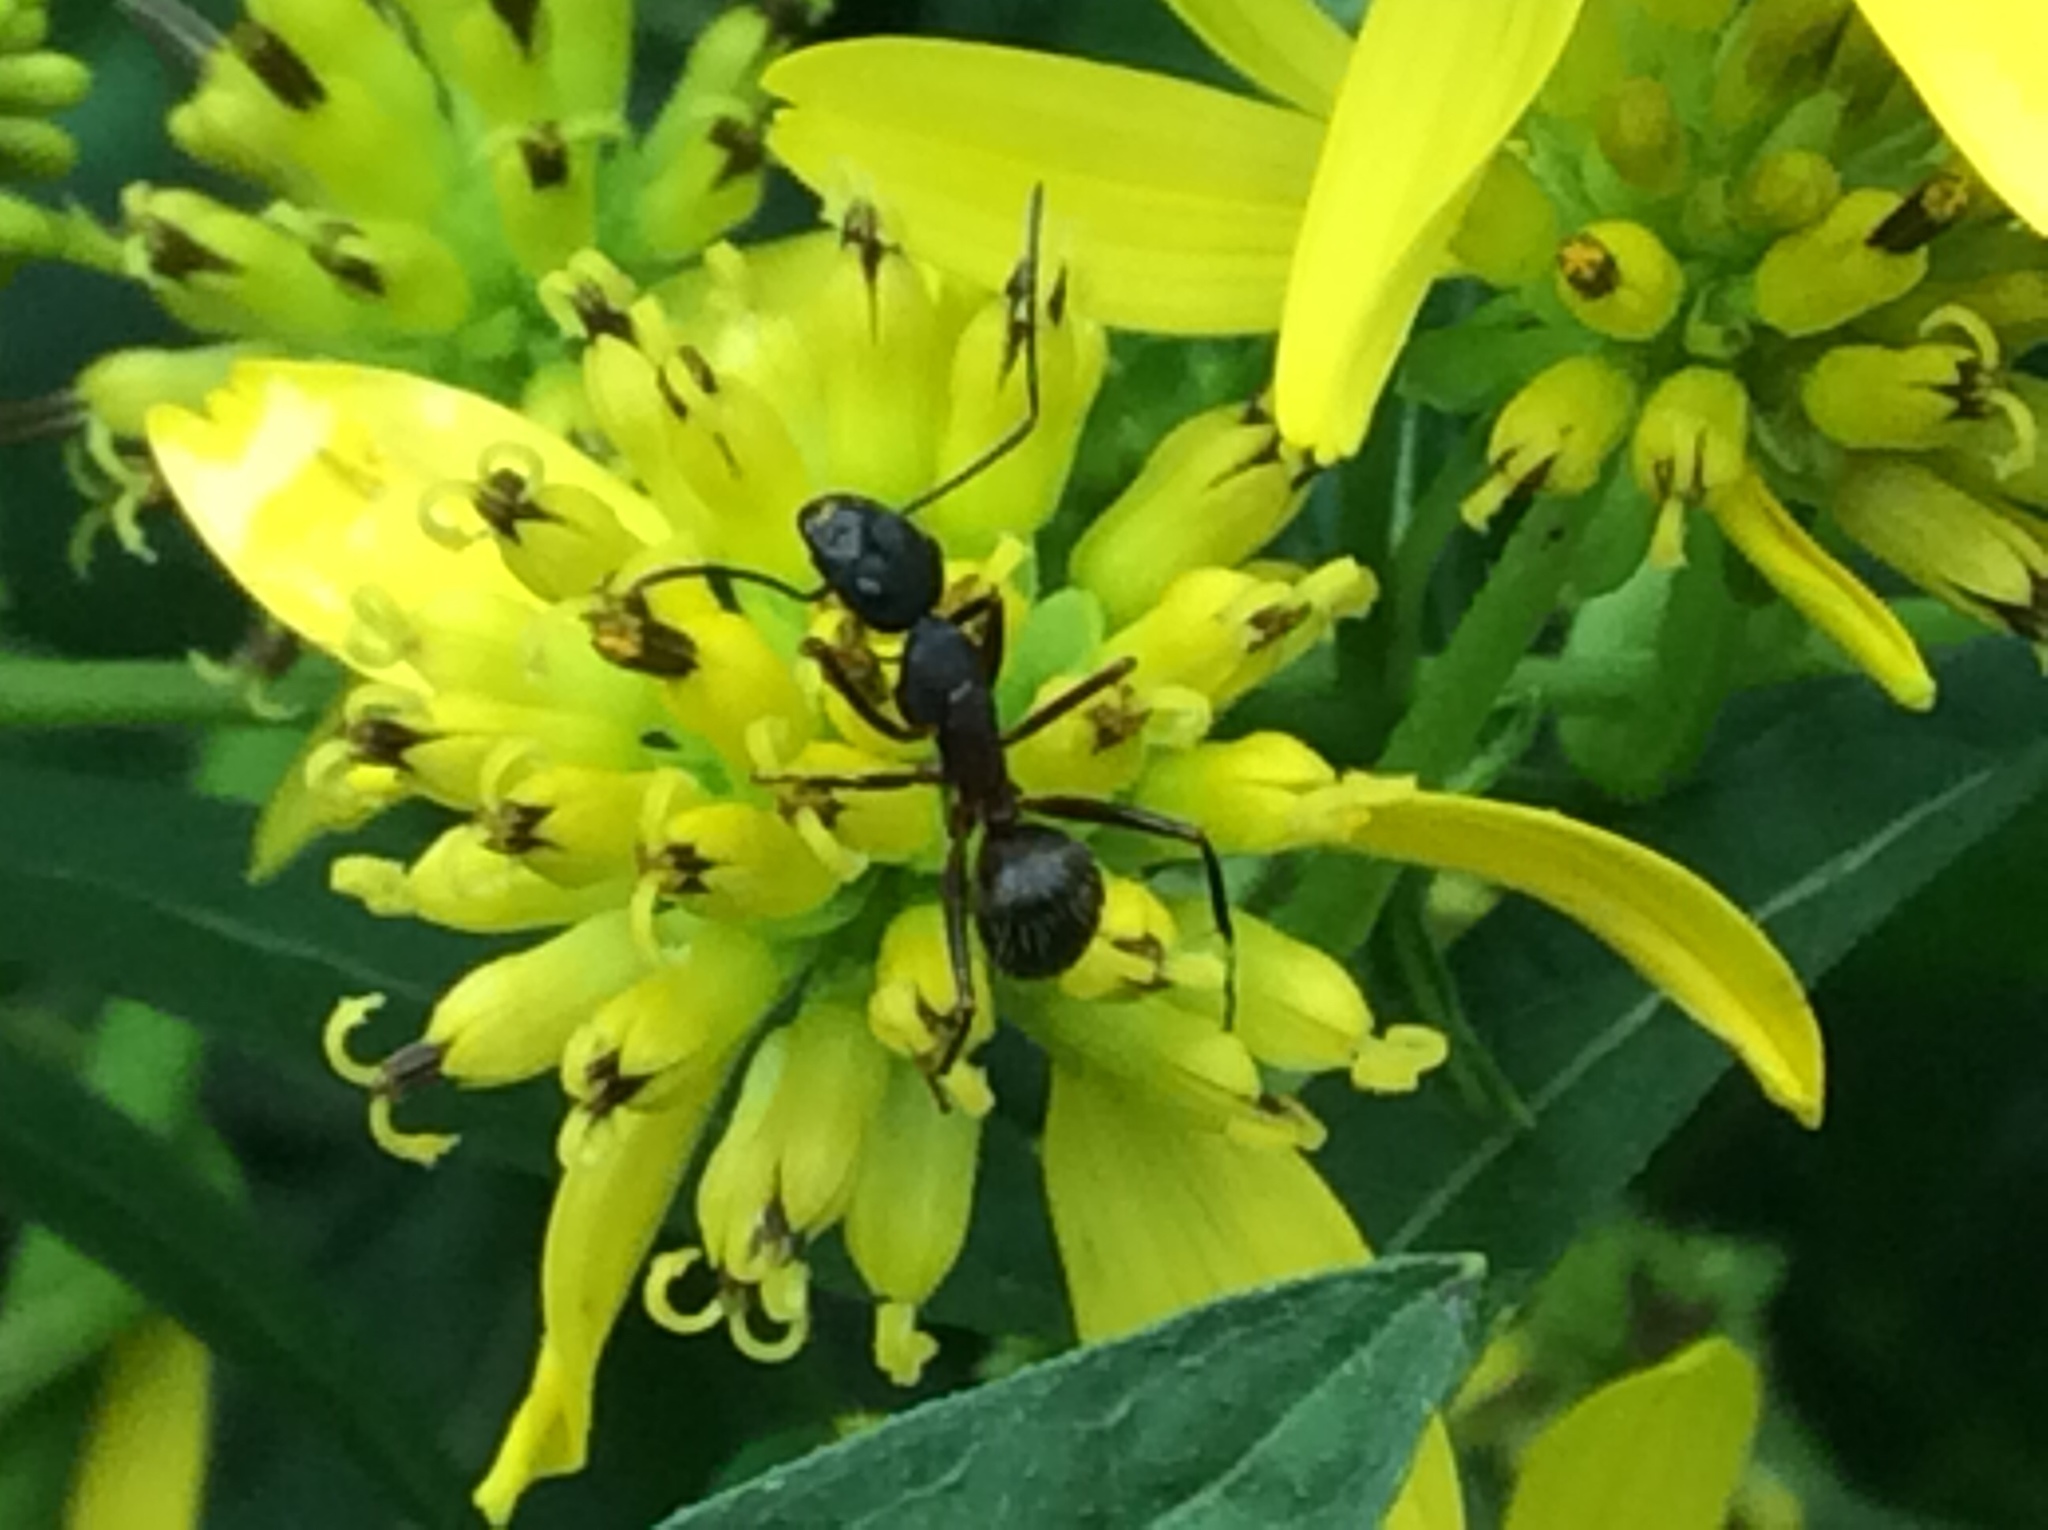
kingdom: Animalia
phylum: Arthropoda
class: Insecta
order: Hymenoptera
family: Formicidae
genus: Camponotus
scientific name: Camponotus pennsylvanicus
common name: Black carpenter ant
